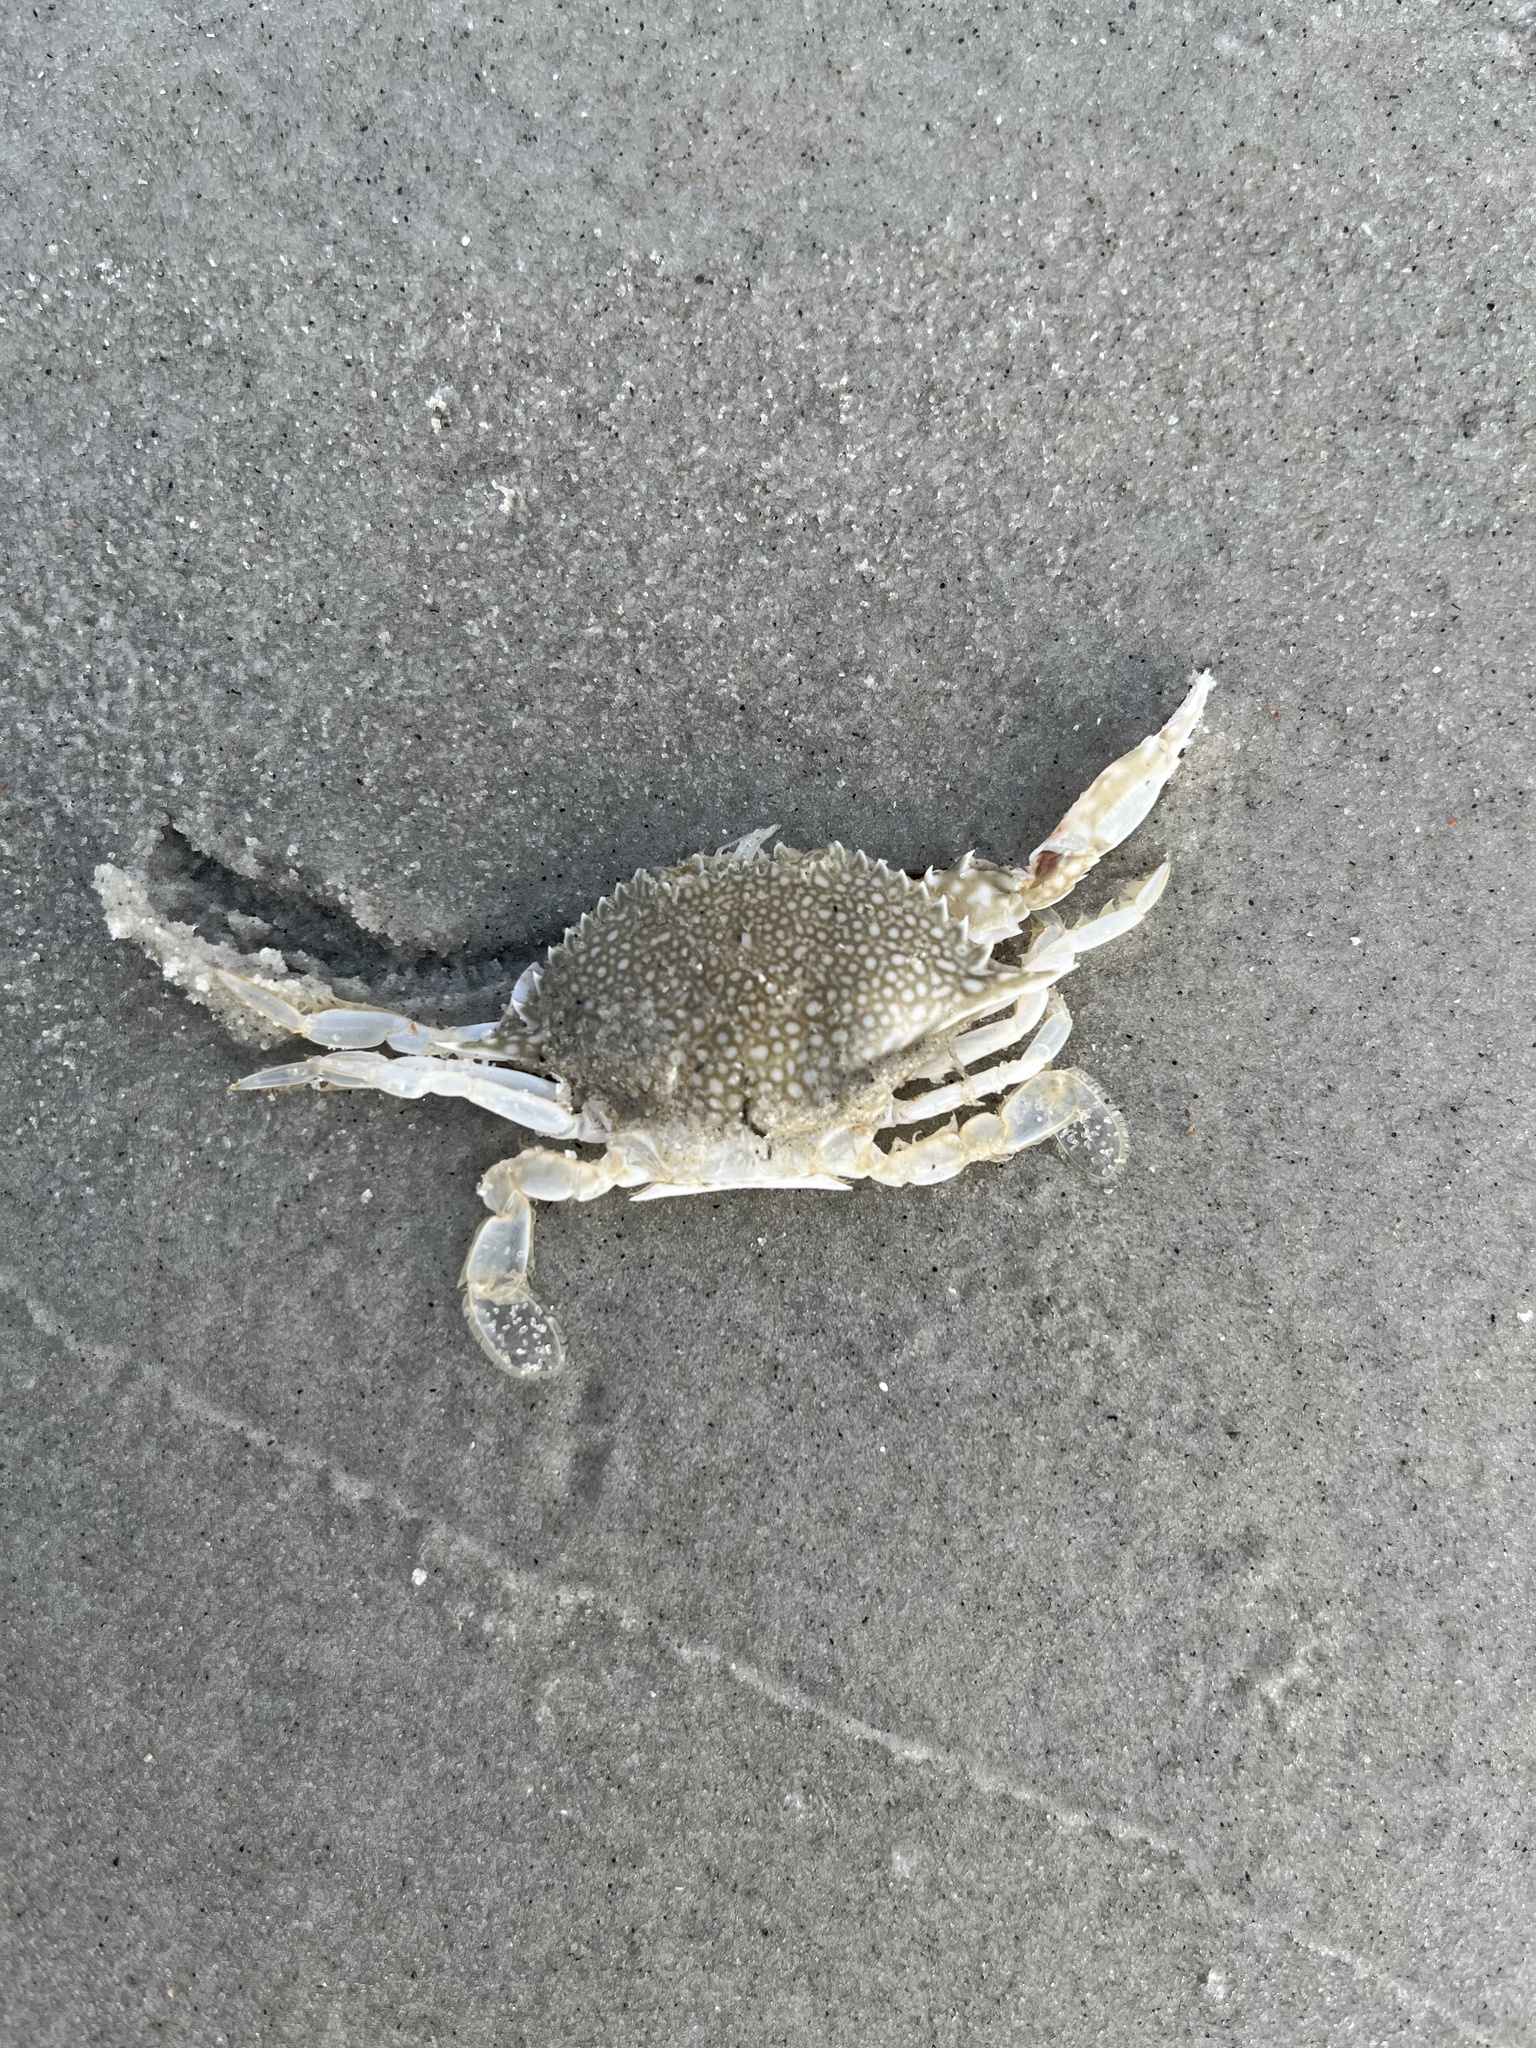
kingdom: Animalia
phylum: Arthropoda
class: Malacostraca
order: Decapoda
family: Portunidae
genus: Arenaeus
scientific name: Arenaeus cribrarius
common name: Speckled crab
